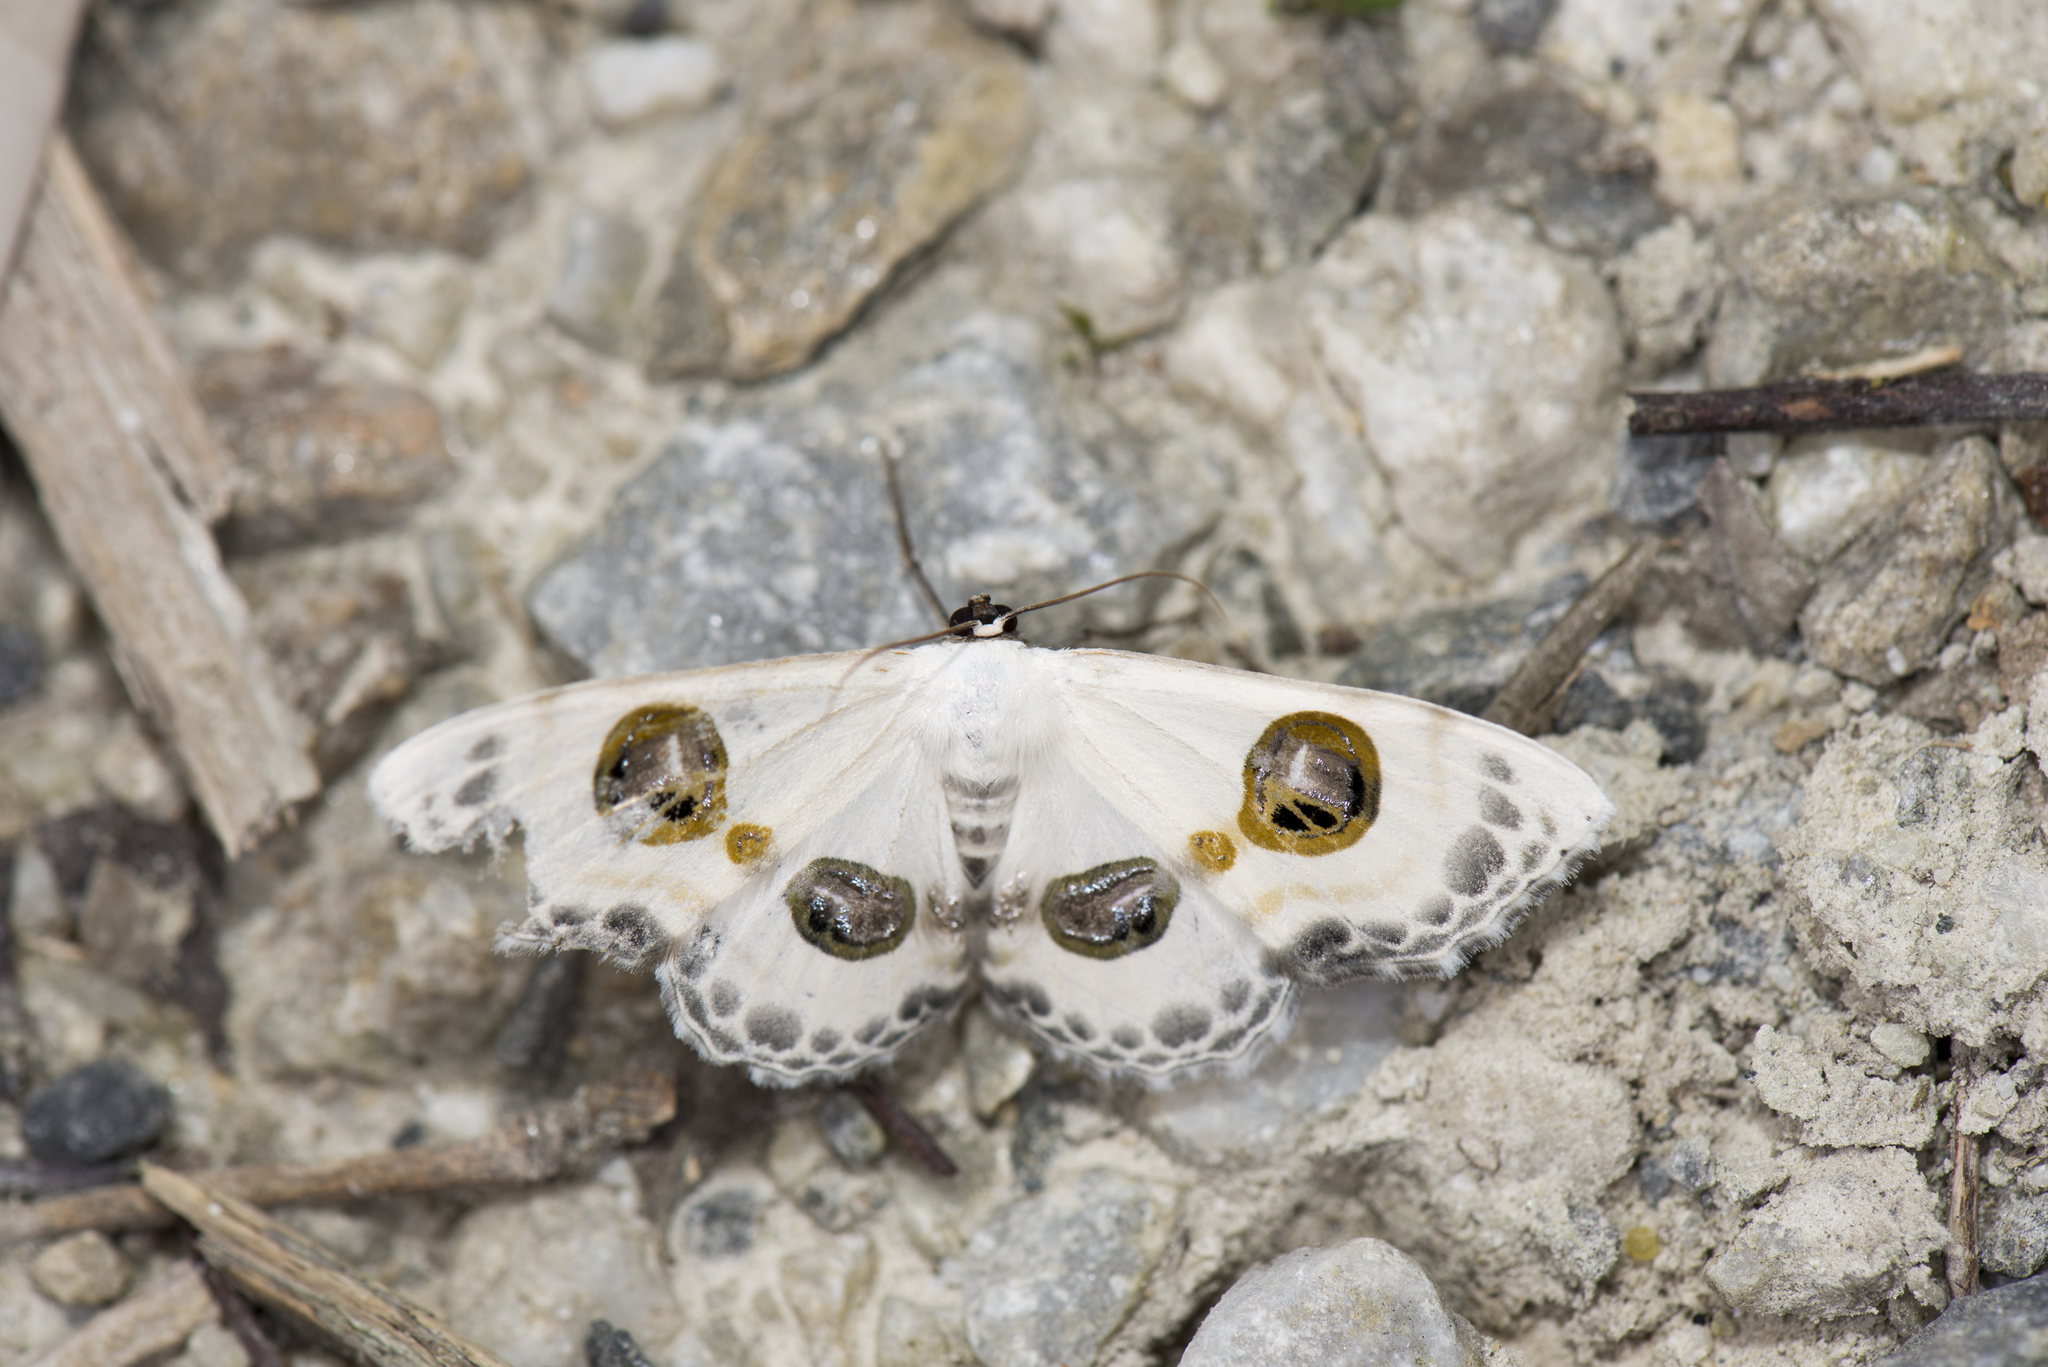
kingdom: Animalia
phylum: Arthropoda
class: Insecta
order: Lepidoptera
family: Geometridae
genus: Problepsis
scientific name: Problepsis discophora
